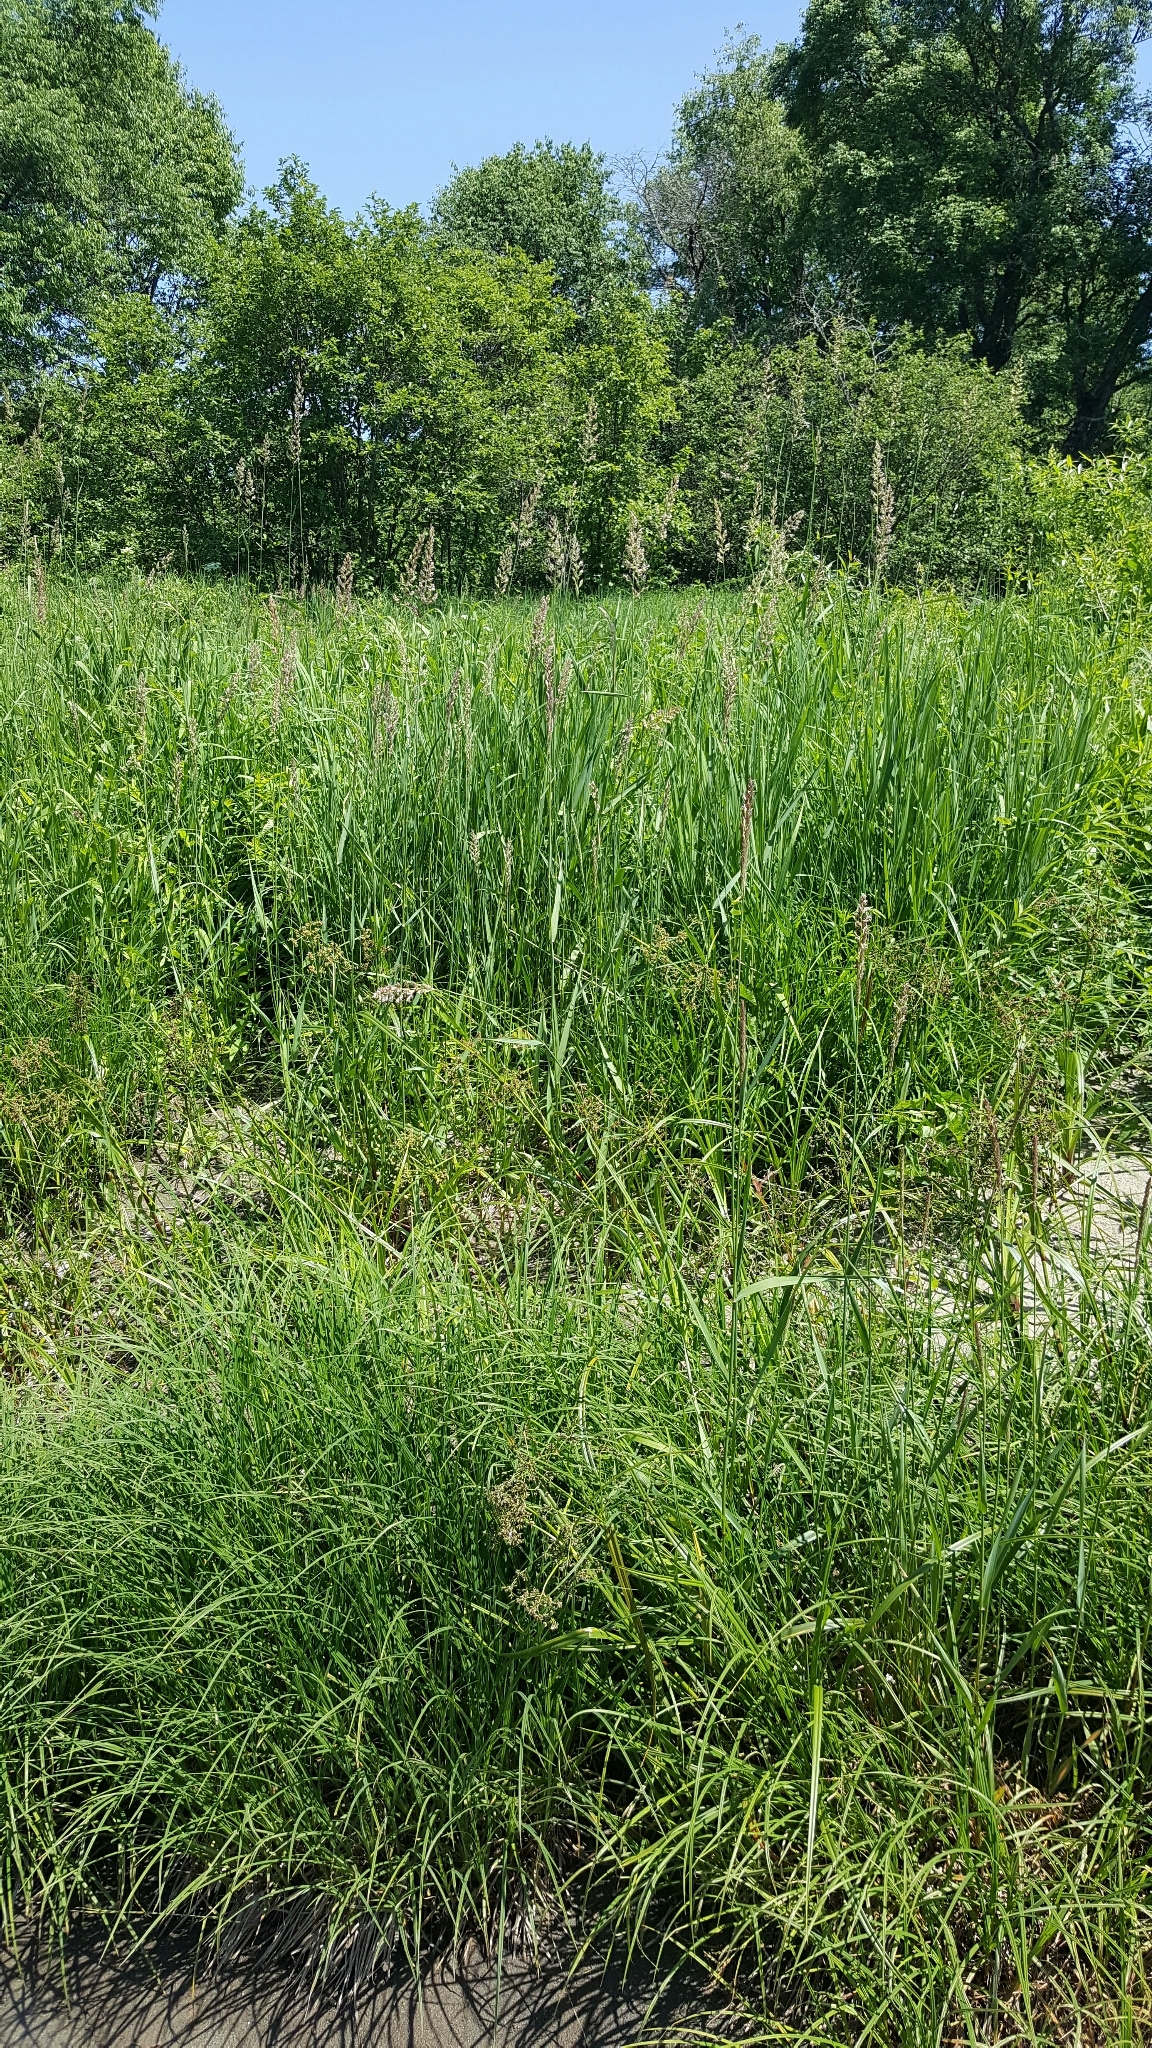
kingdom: Plantae
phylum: Tracheophyta
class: Liliopsida
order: Poales
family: Poaceae
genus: Phalaris
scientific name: Phalaris arundinacea
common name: Reed canary-grass
